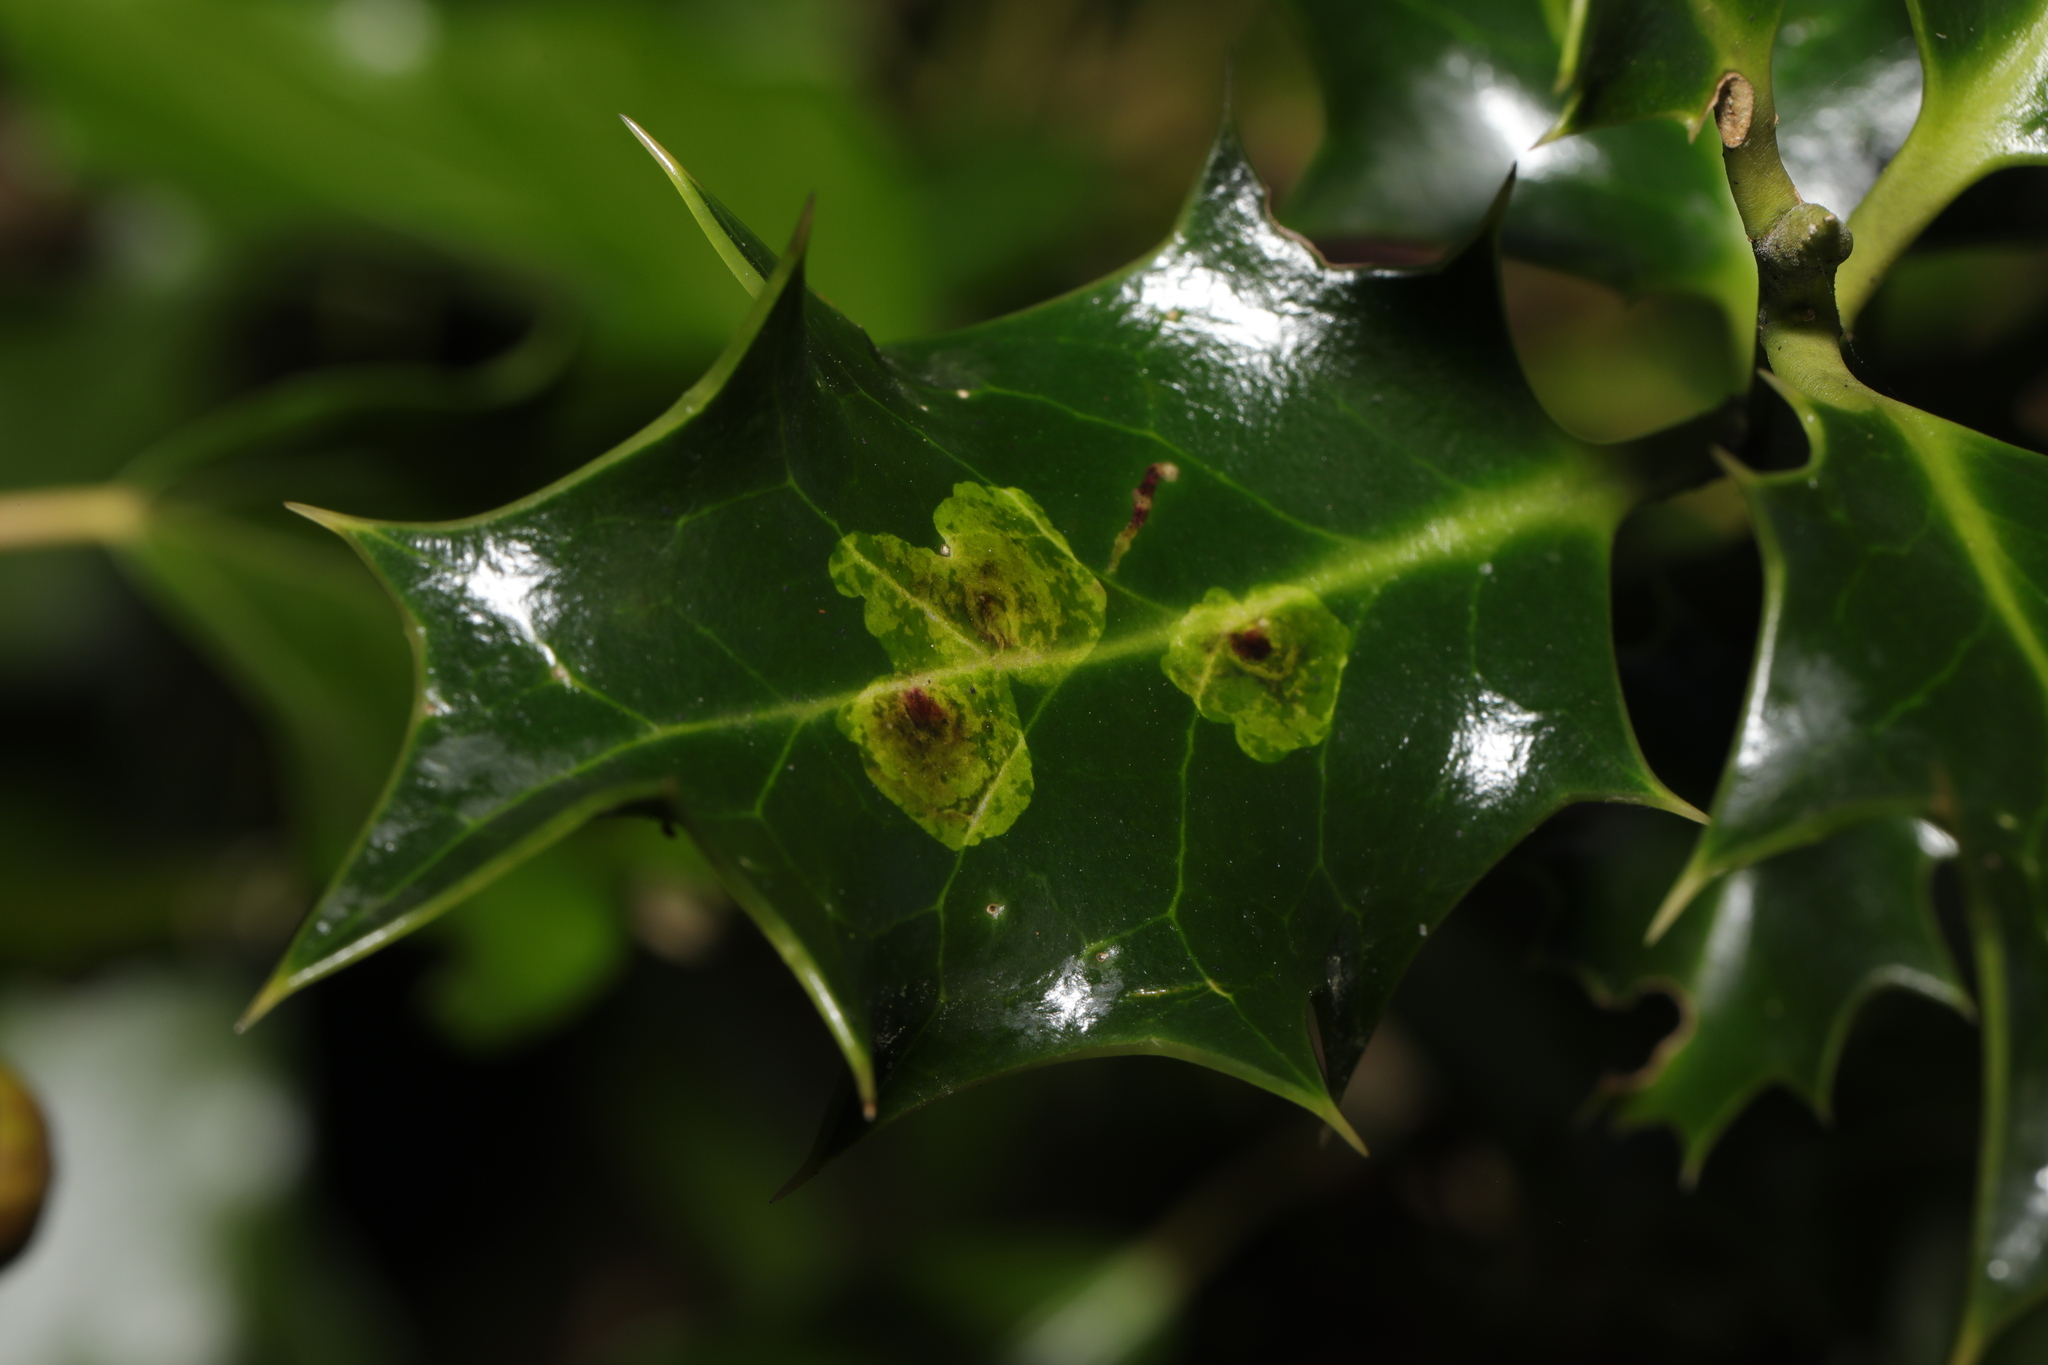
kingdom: Animalia
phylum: Arthropoda
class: Insecta
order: Diptera
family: Agromyzidae
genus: Phytomyza
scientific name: Phytomyza ilicis
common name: Holly leafminer
